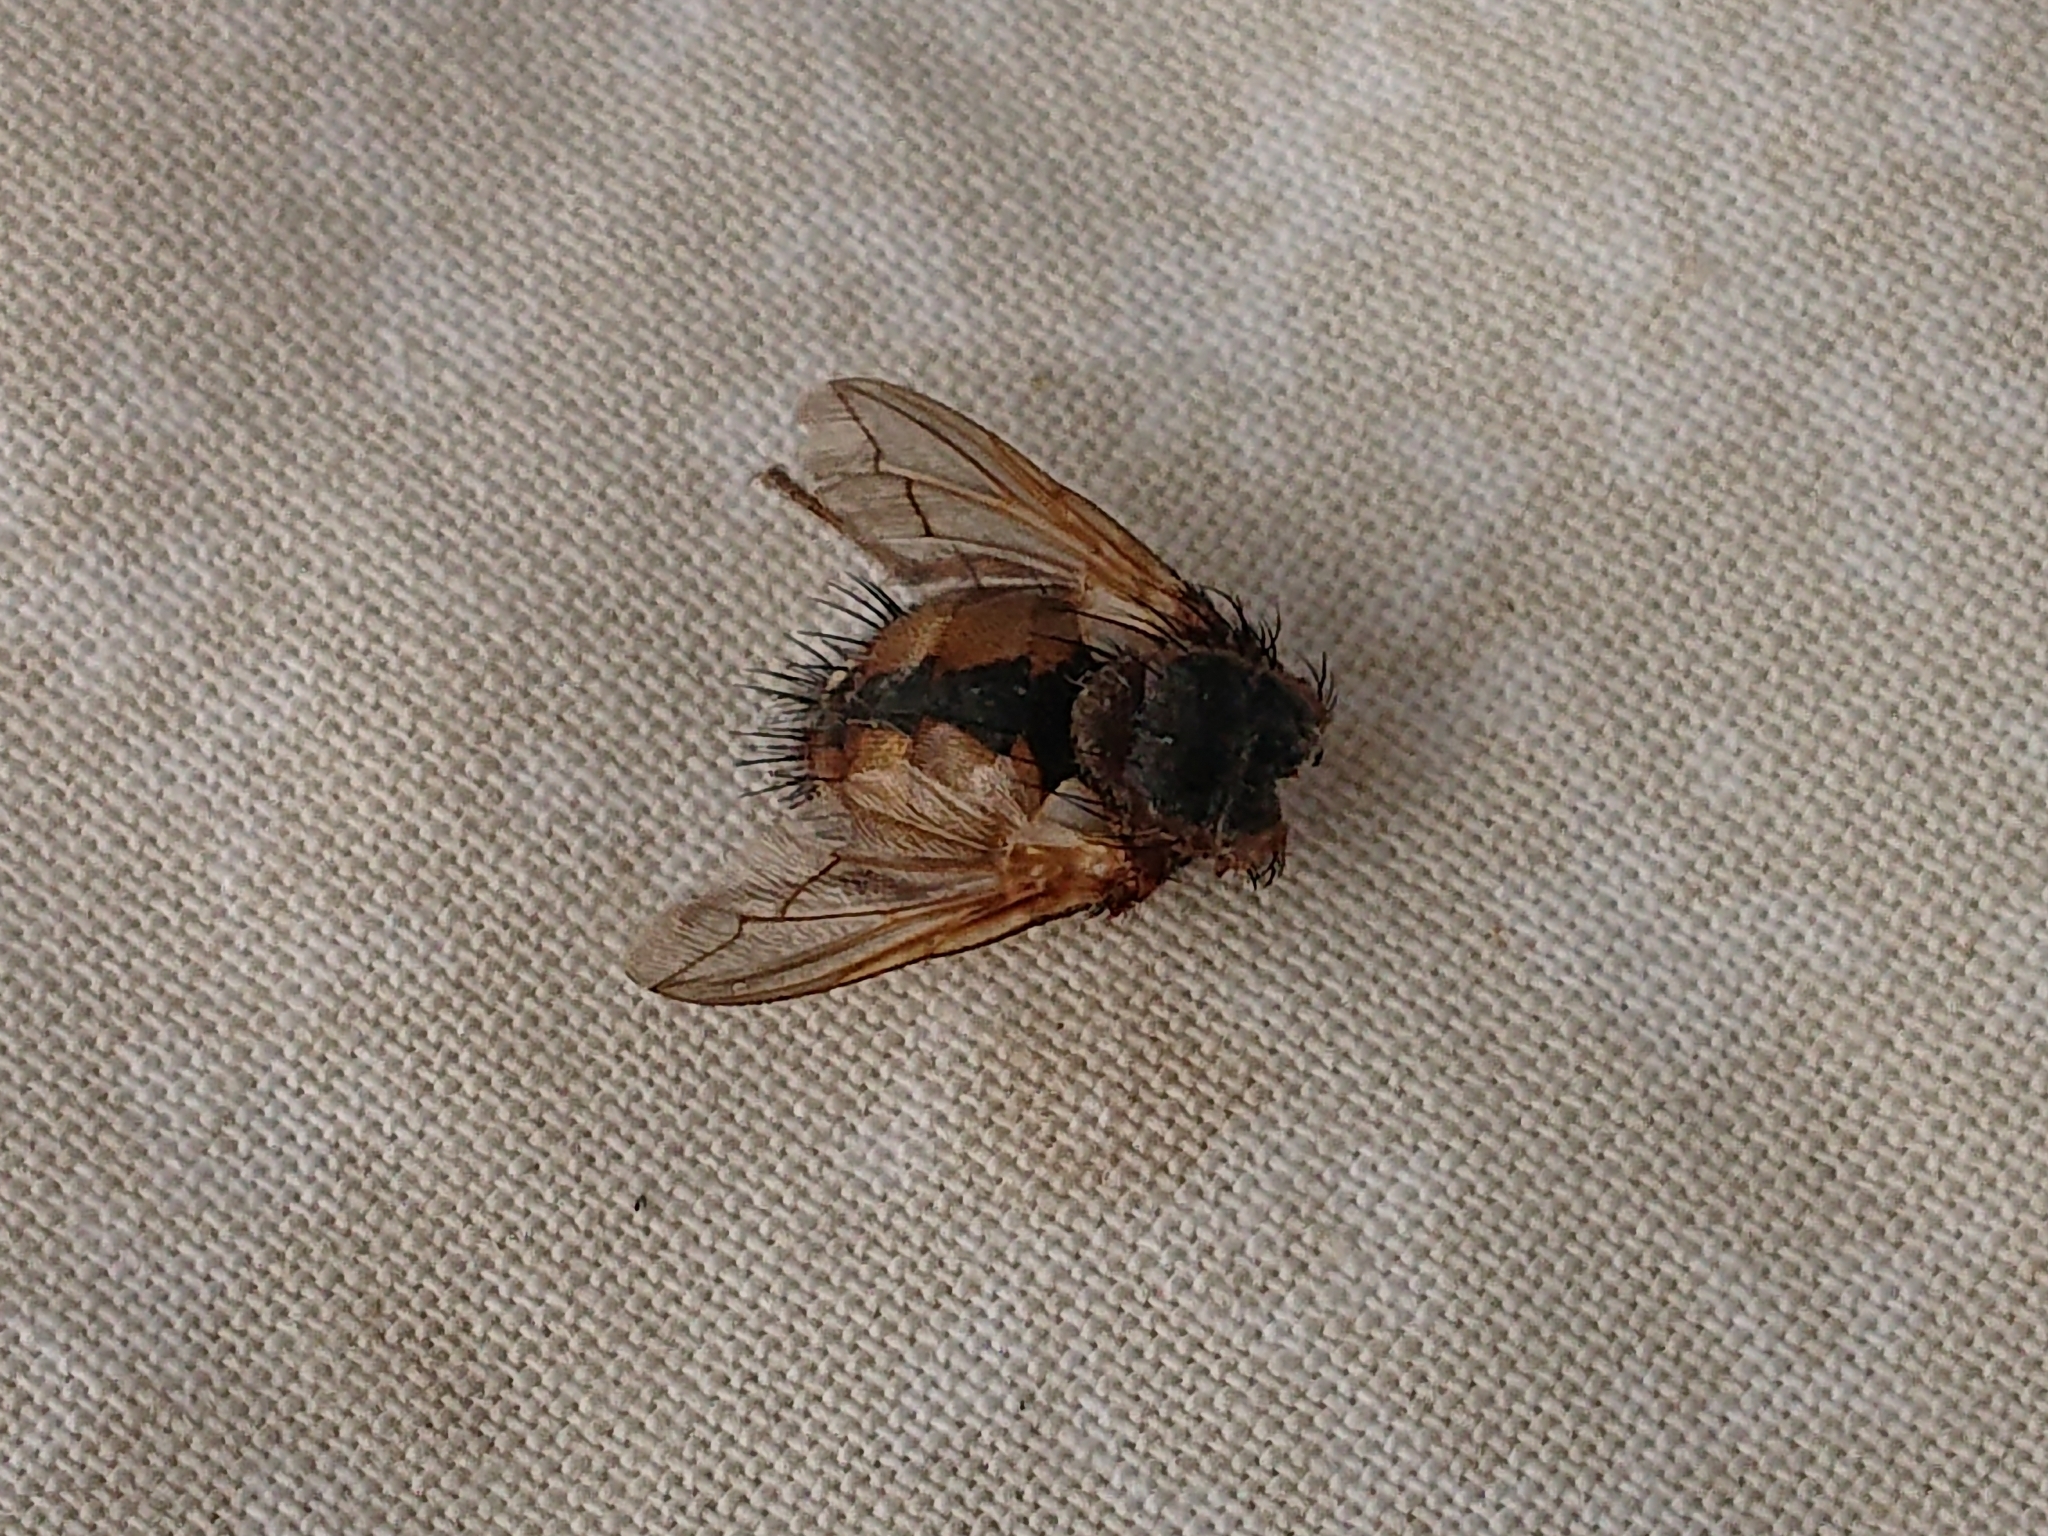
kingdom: Animalia
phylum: Arthropoda
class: Insecta
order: Diptera
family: Tachinidae
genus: Tachina
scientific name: Tachina fera
